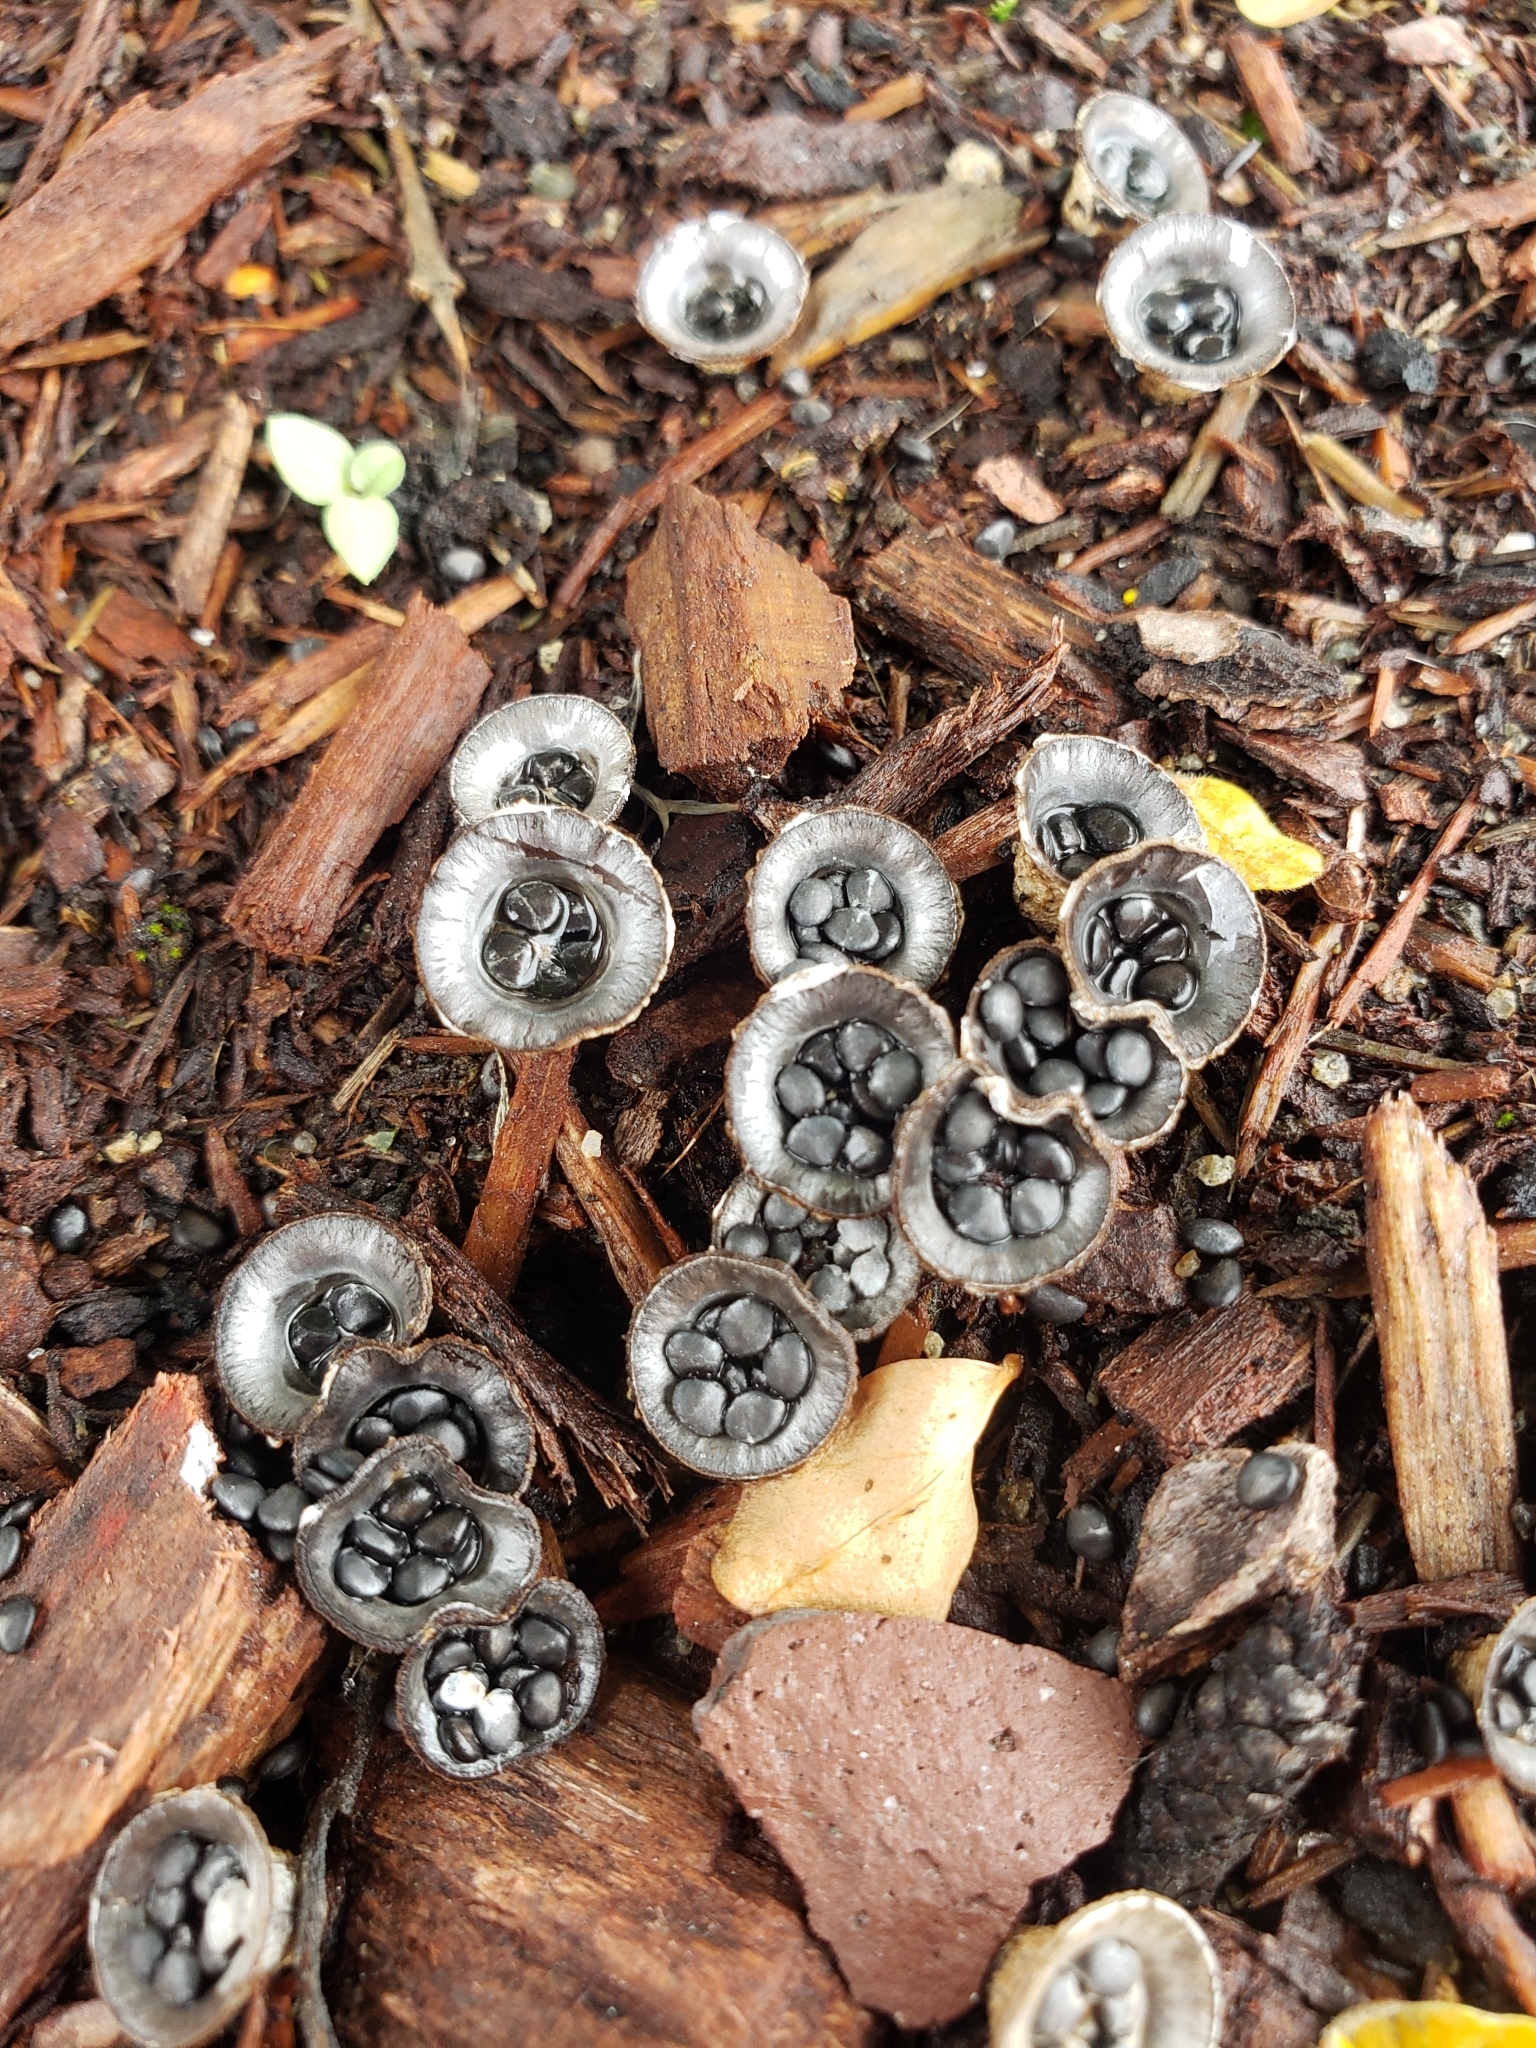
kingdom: Fungi
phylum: Basidiomycota
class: Agaricomycetes
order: Agaricales
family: Agaricaceae
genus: Cyathus
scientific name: Cyathus stercoreus
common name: Dung bird's nest
